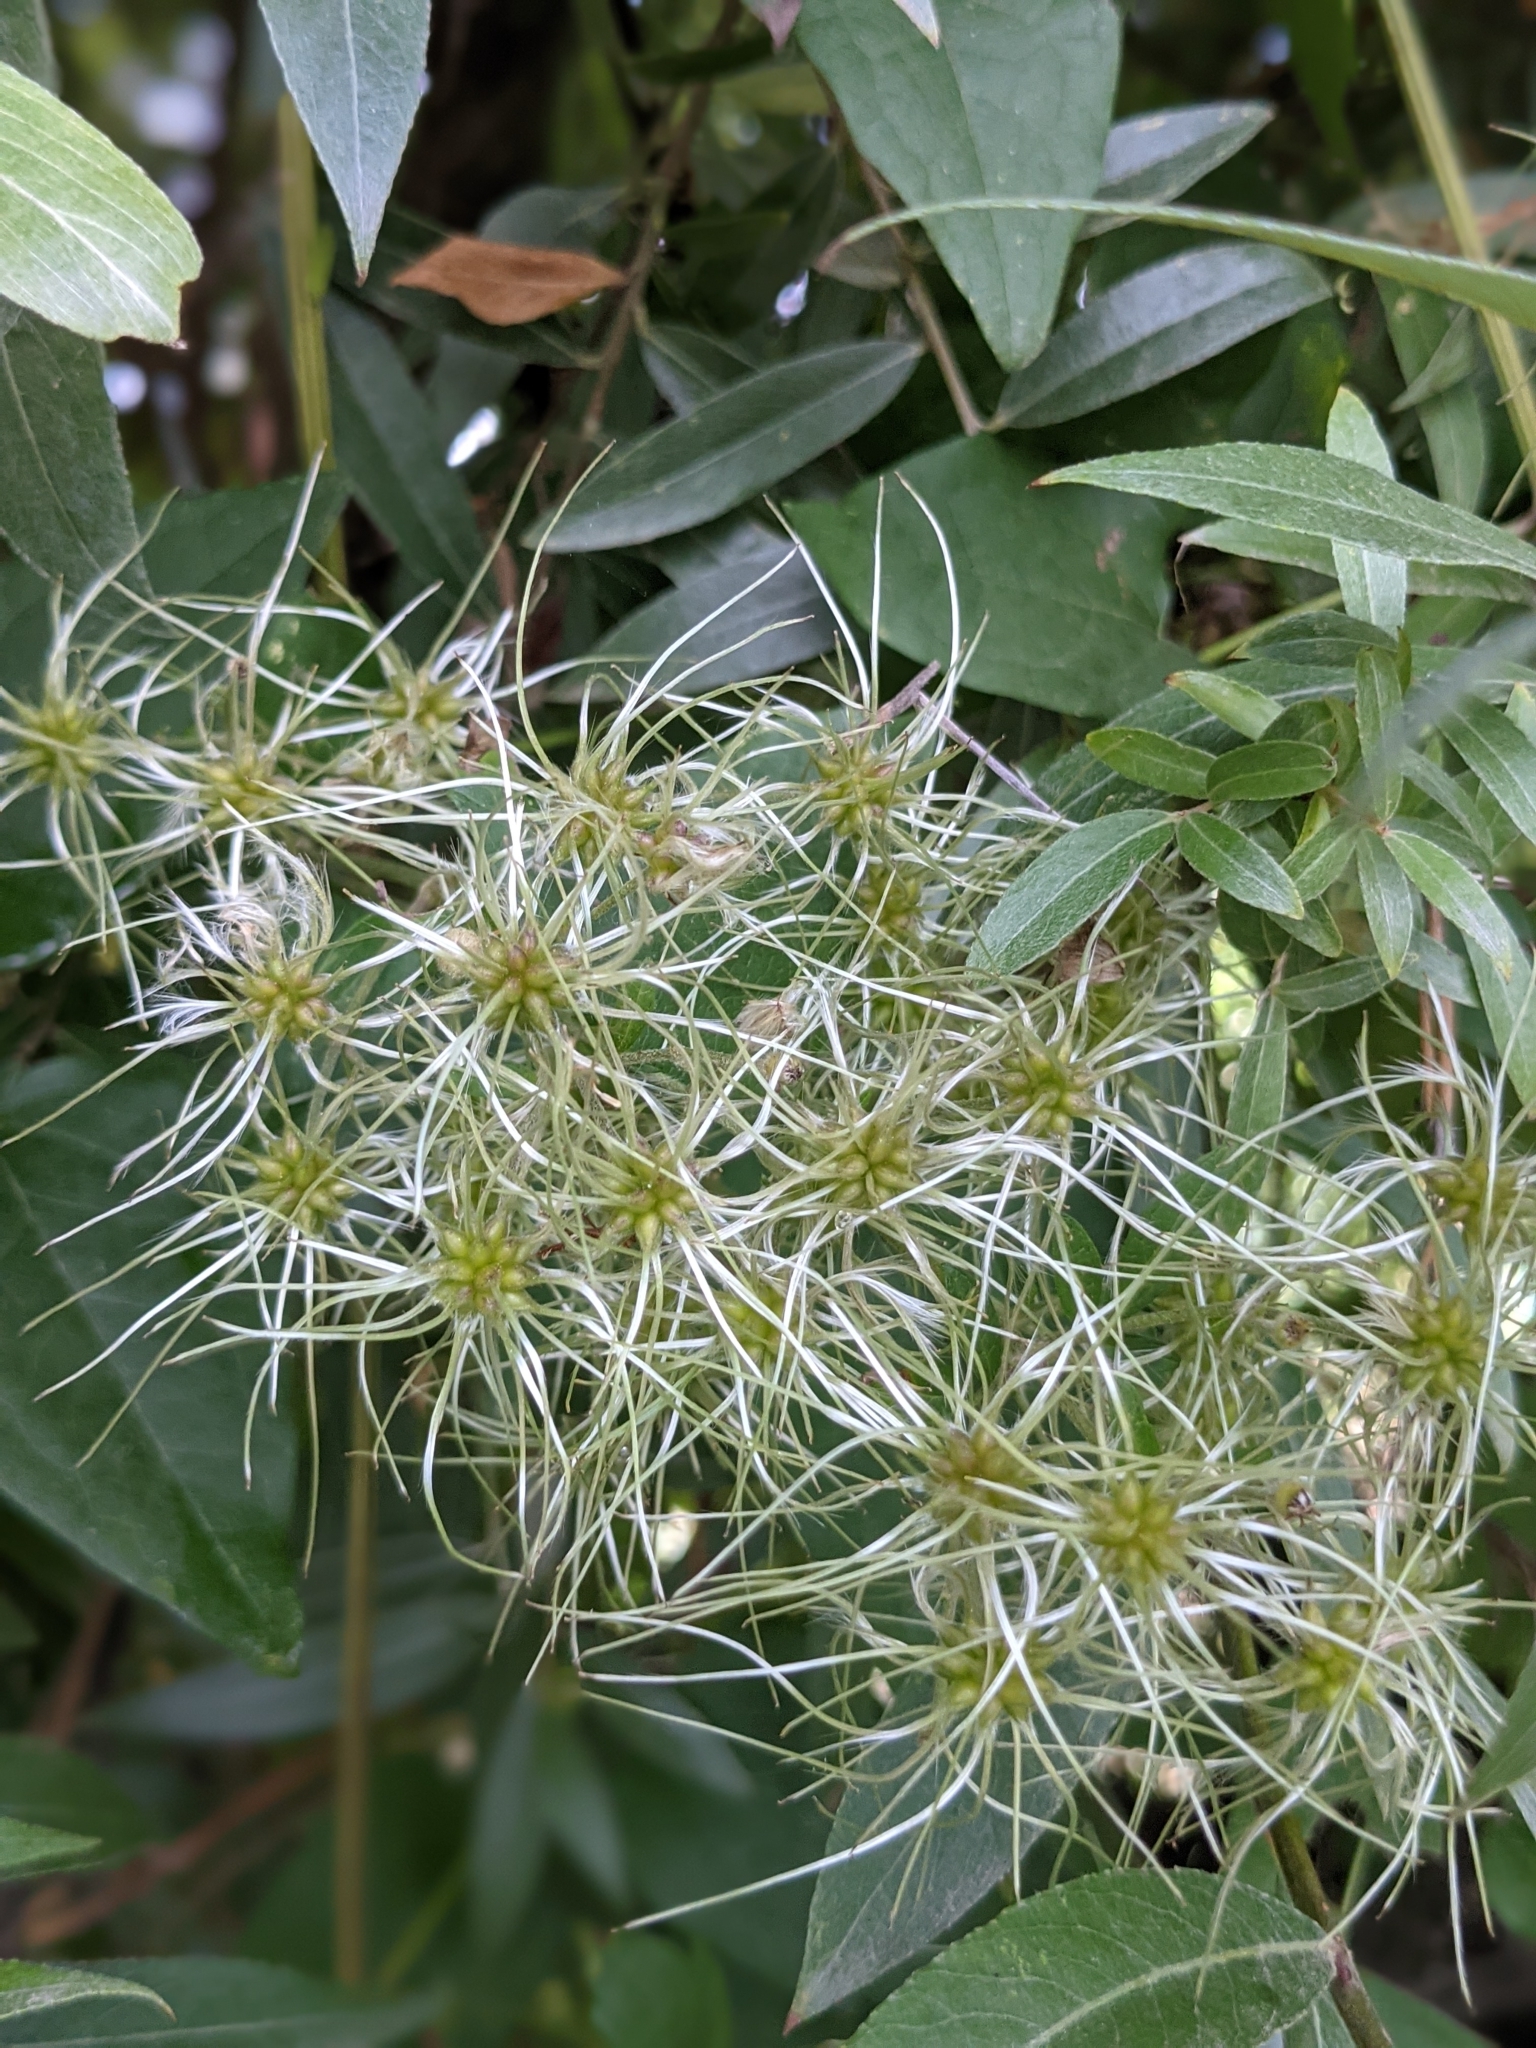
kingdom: Plantae
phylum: Tracheophyta
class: Magnoliopsida
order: Ranunculales
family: Ranunculaceae
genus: Clematis
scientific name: Clematis vitalba
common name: Evergreen clematis
